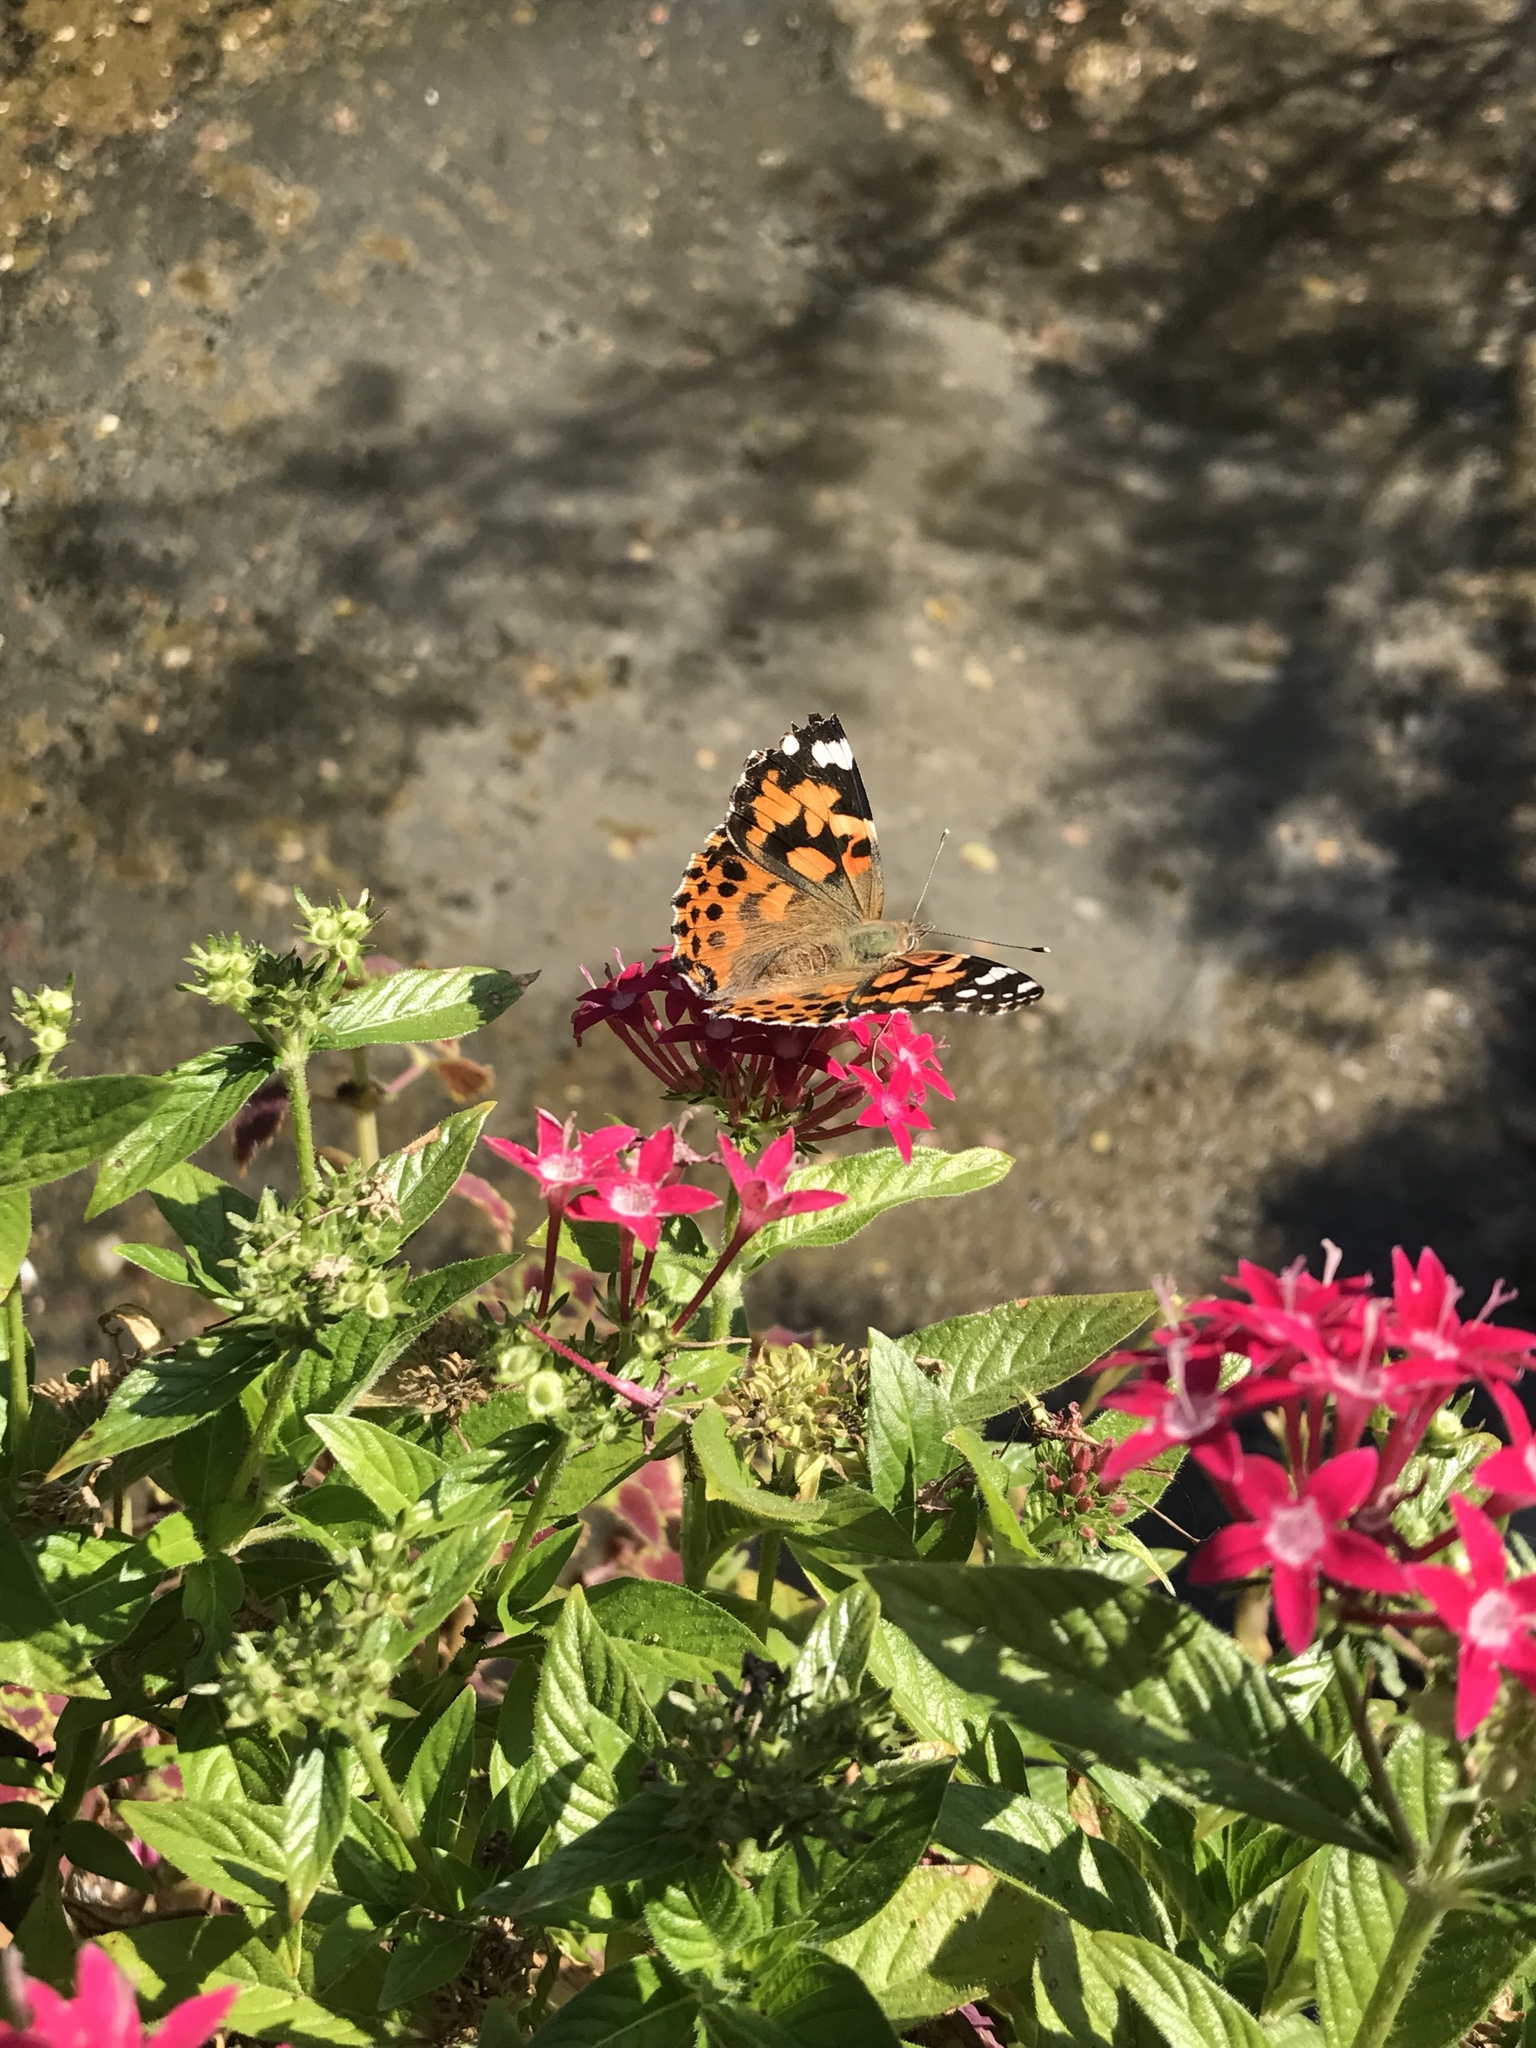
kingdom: Animalia
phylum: Arthropoda
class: Insecta
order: Lepidoptera
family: Nymphalidae
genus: Vanessa
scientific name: Vanessa cardui
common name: Painted lady
